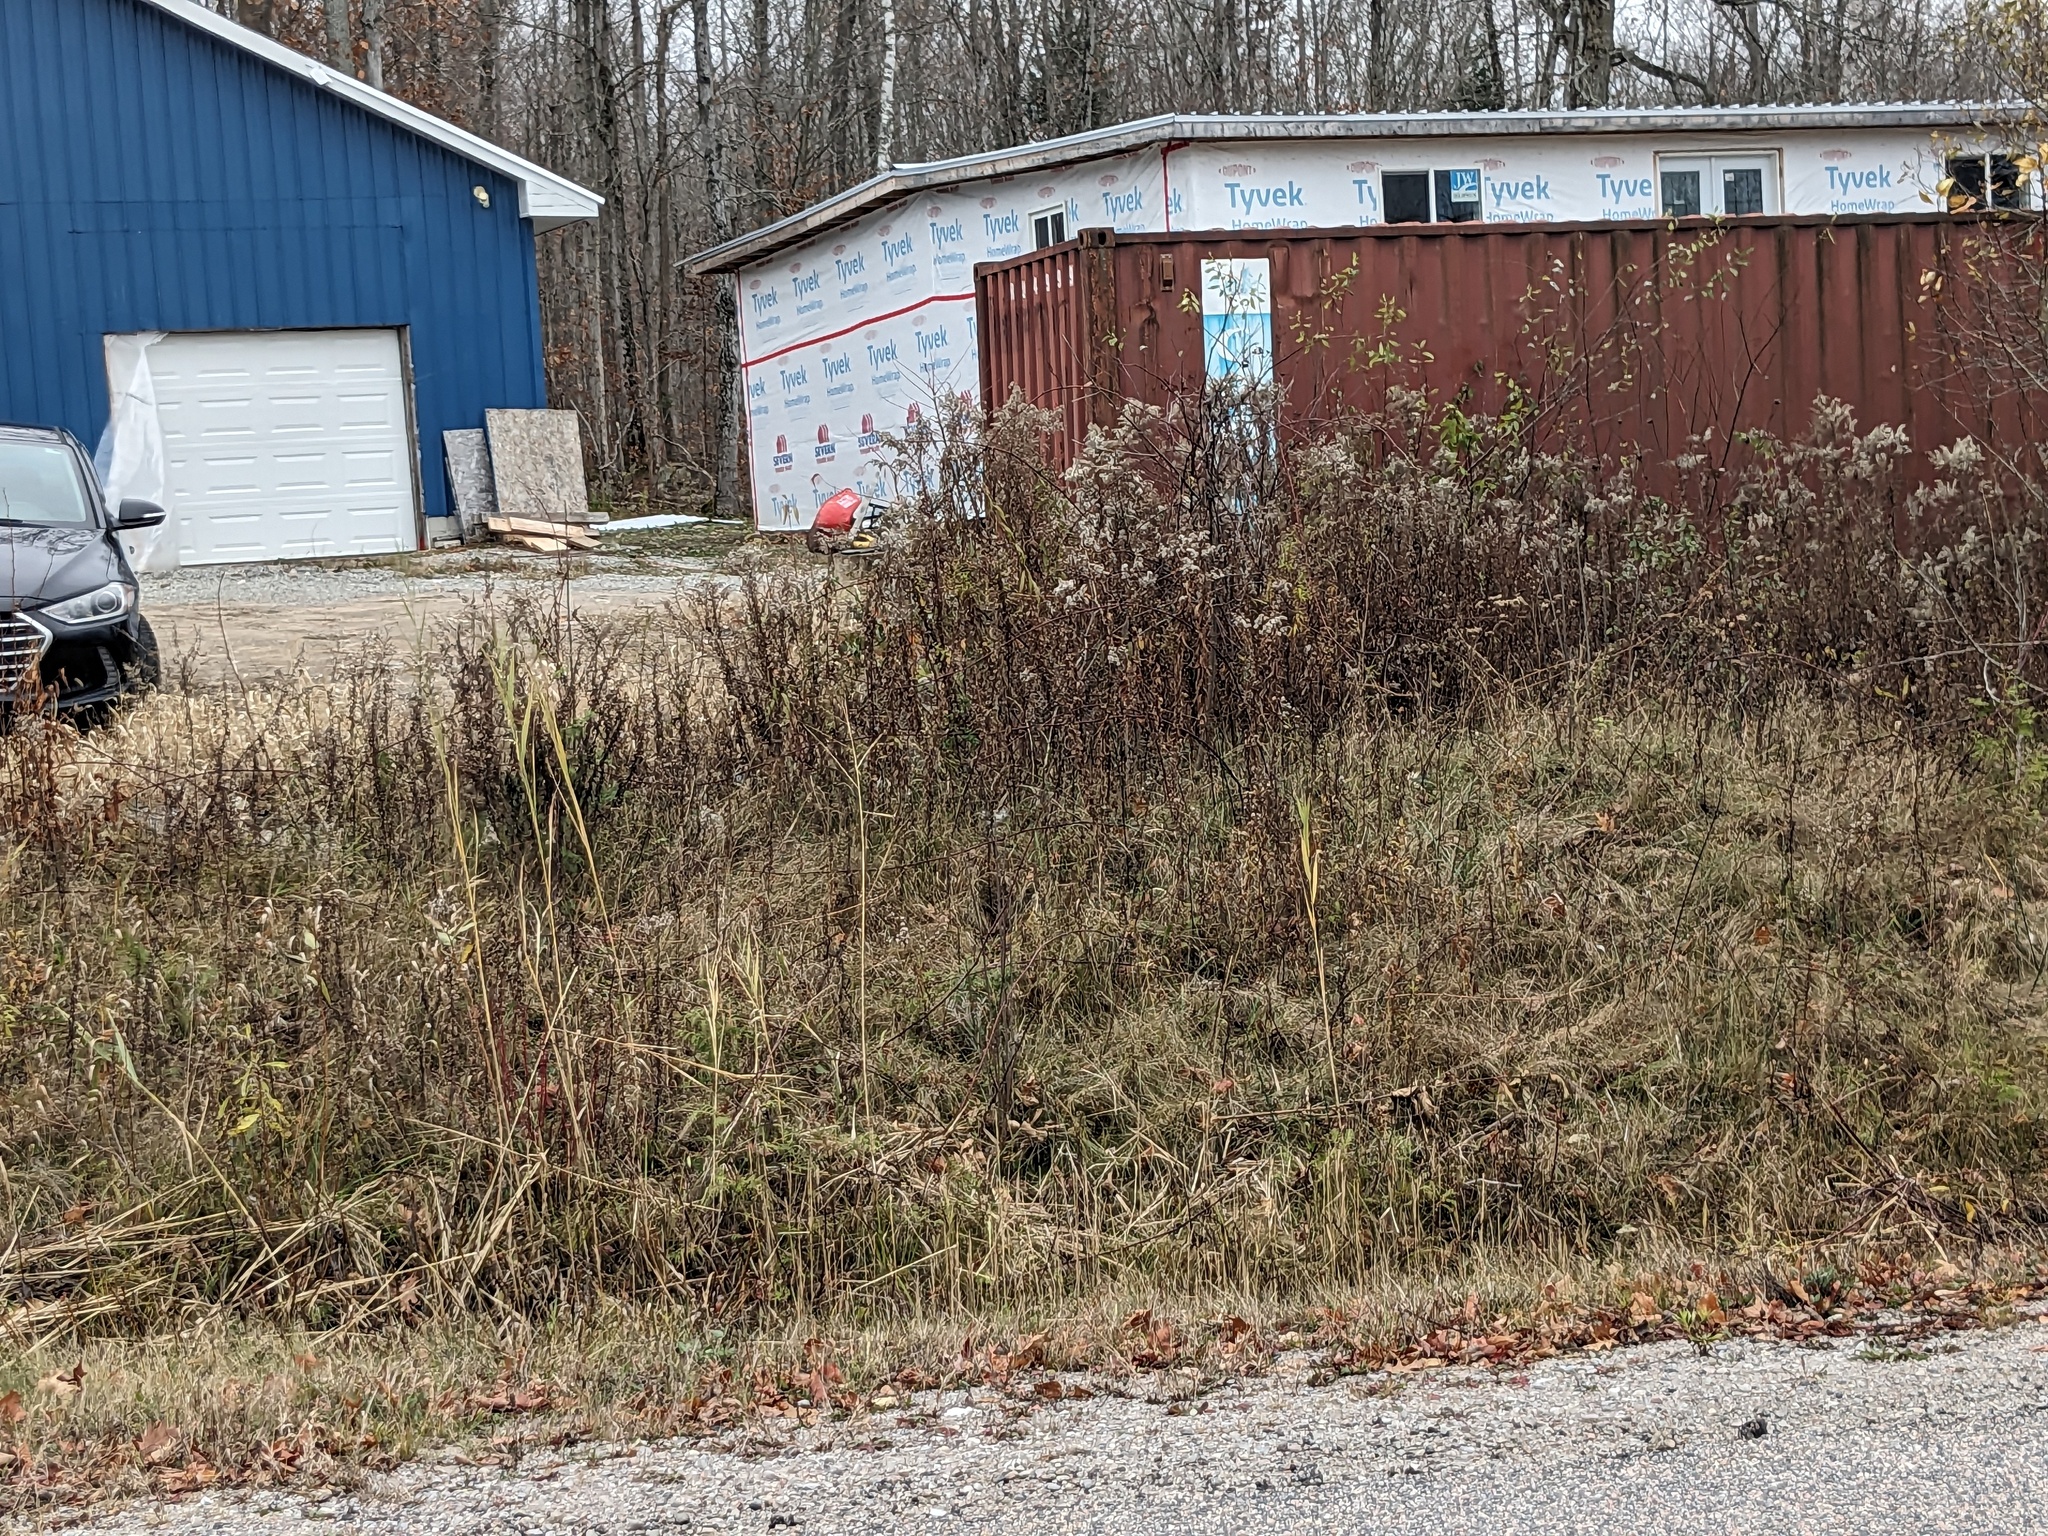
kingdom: Plantae
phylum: Tracheophyta
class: Liliopsida
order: Poales
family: Poaceae
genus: Phragmites
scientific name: Phragmites australis
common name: Common reed
